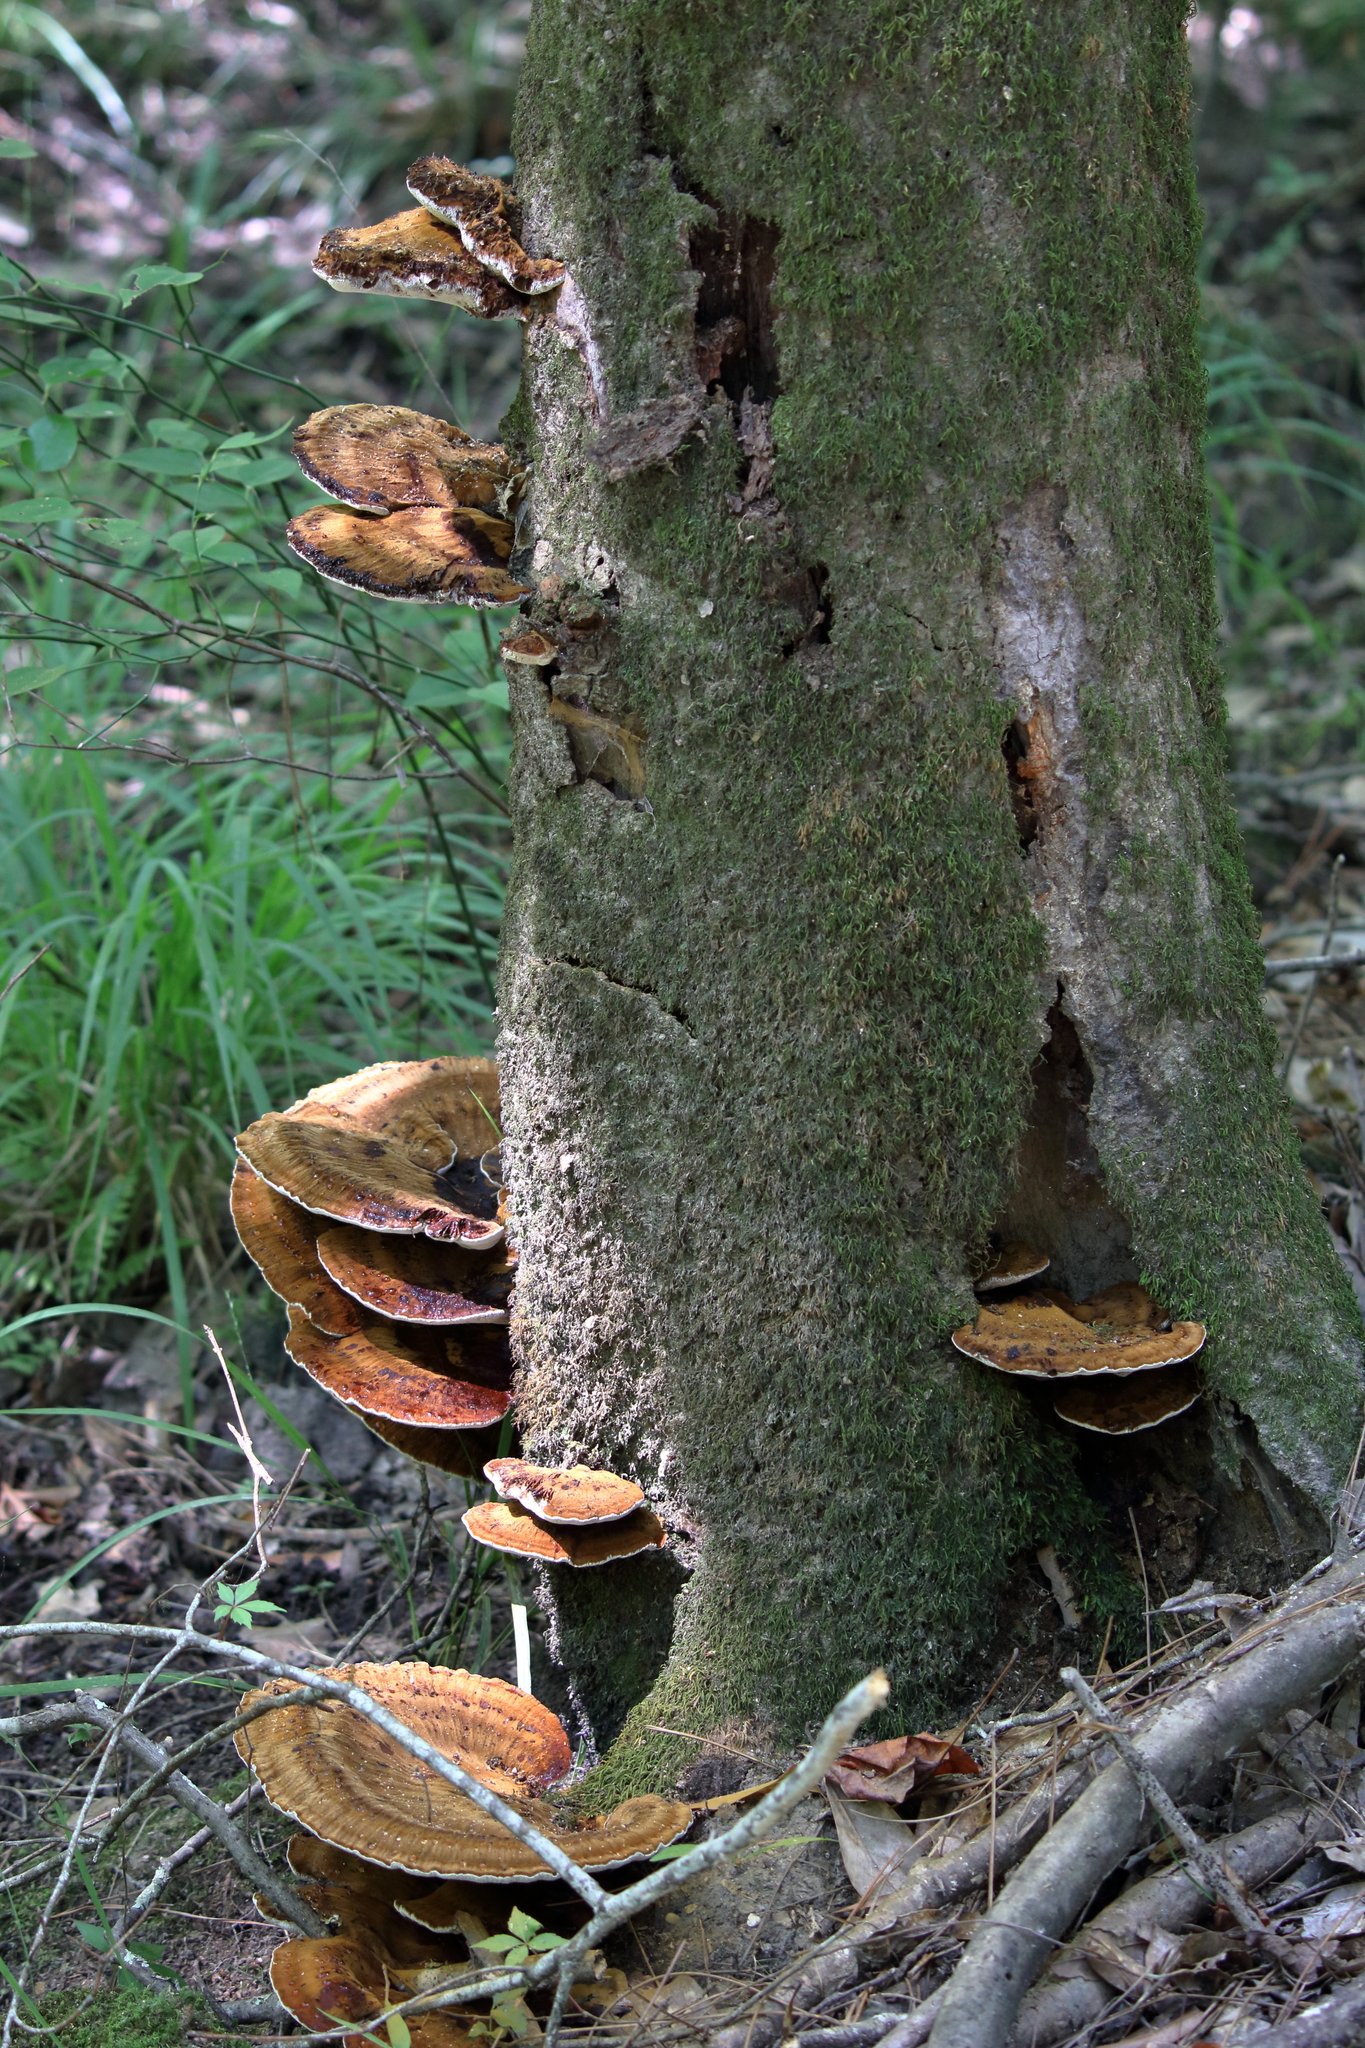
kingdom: Fungi
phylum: Basidiomycota
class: Agaricomycetes
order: Hymenochaetales
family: Hymenochaetaceae
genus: Inocutis
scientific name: Inocutis ludoviciana
